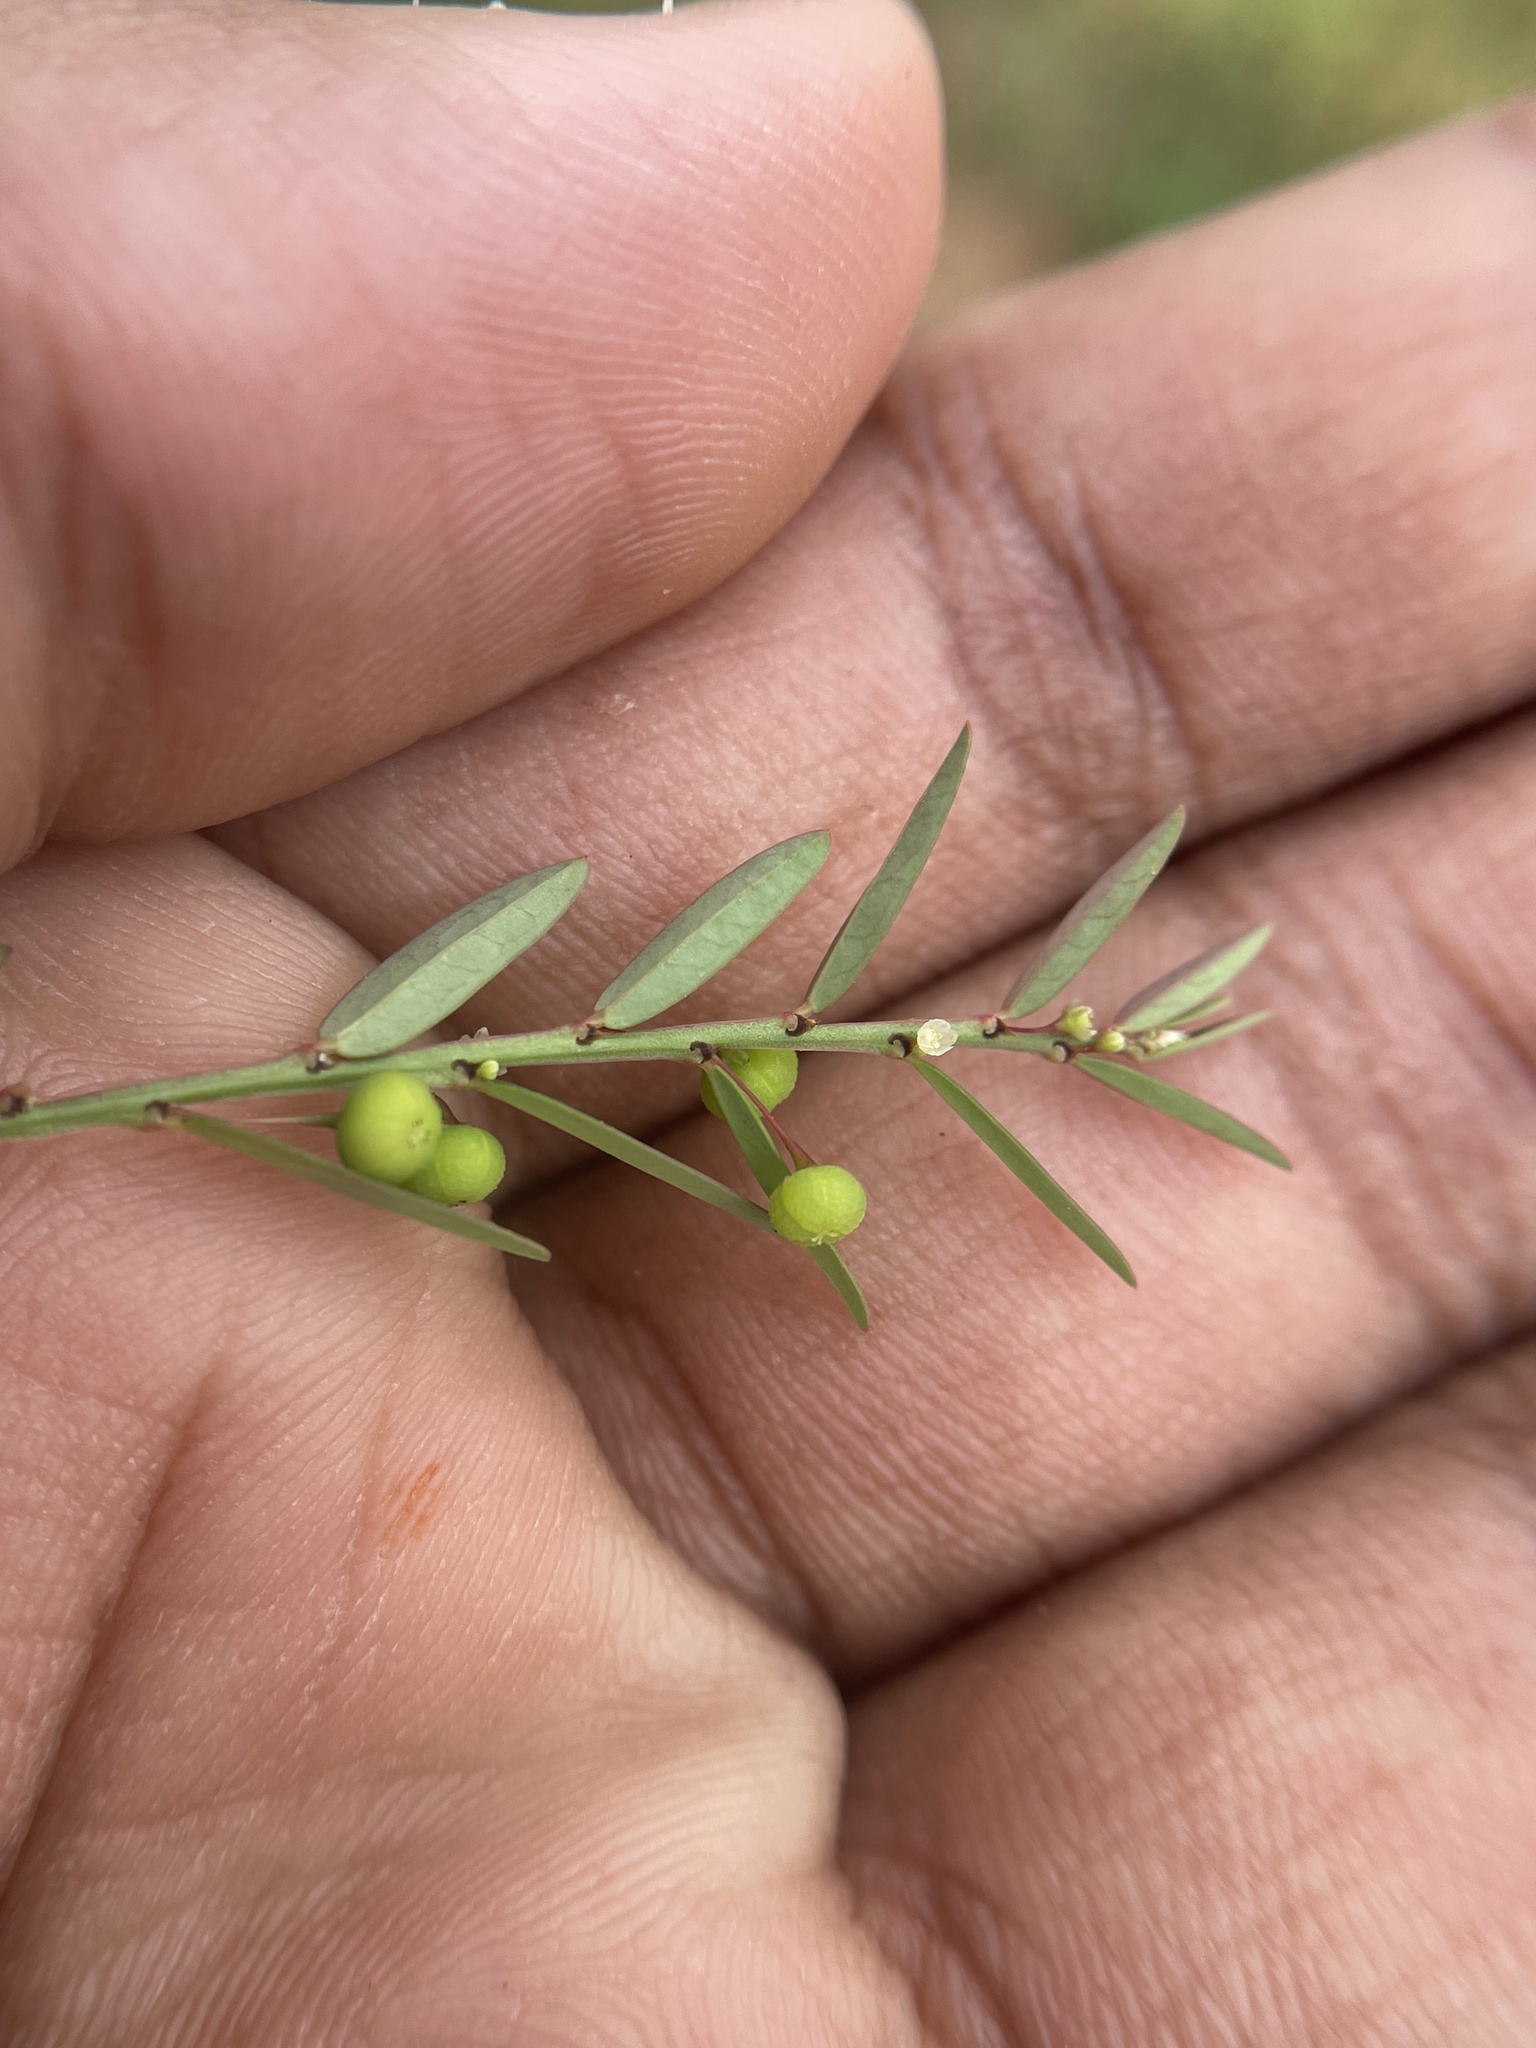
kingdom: Plantae
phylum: Tracheophyta
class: Magnoliopsida
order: Malpighiales
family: Phyllanthaceae
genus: Phyllanthus
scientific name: Phyllanthus virgatus
